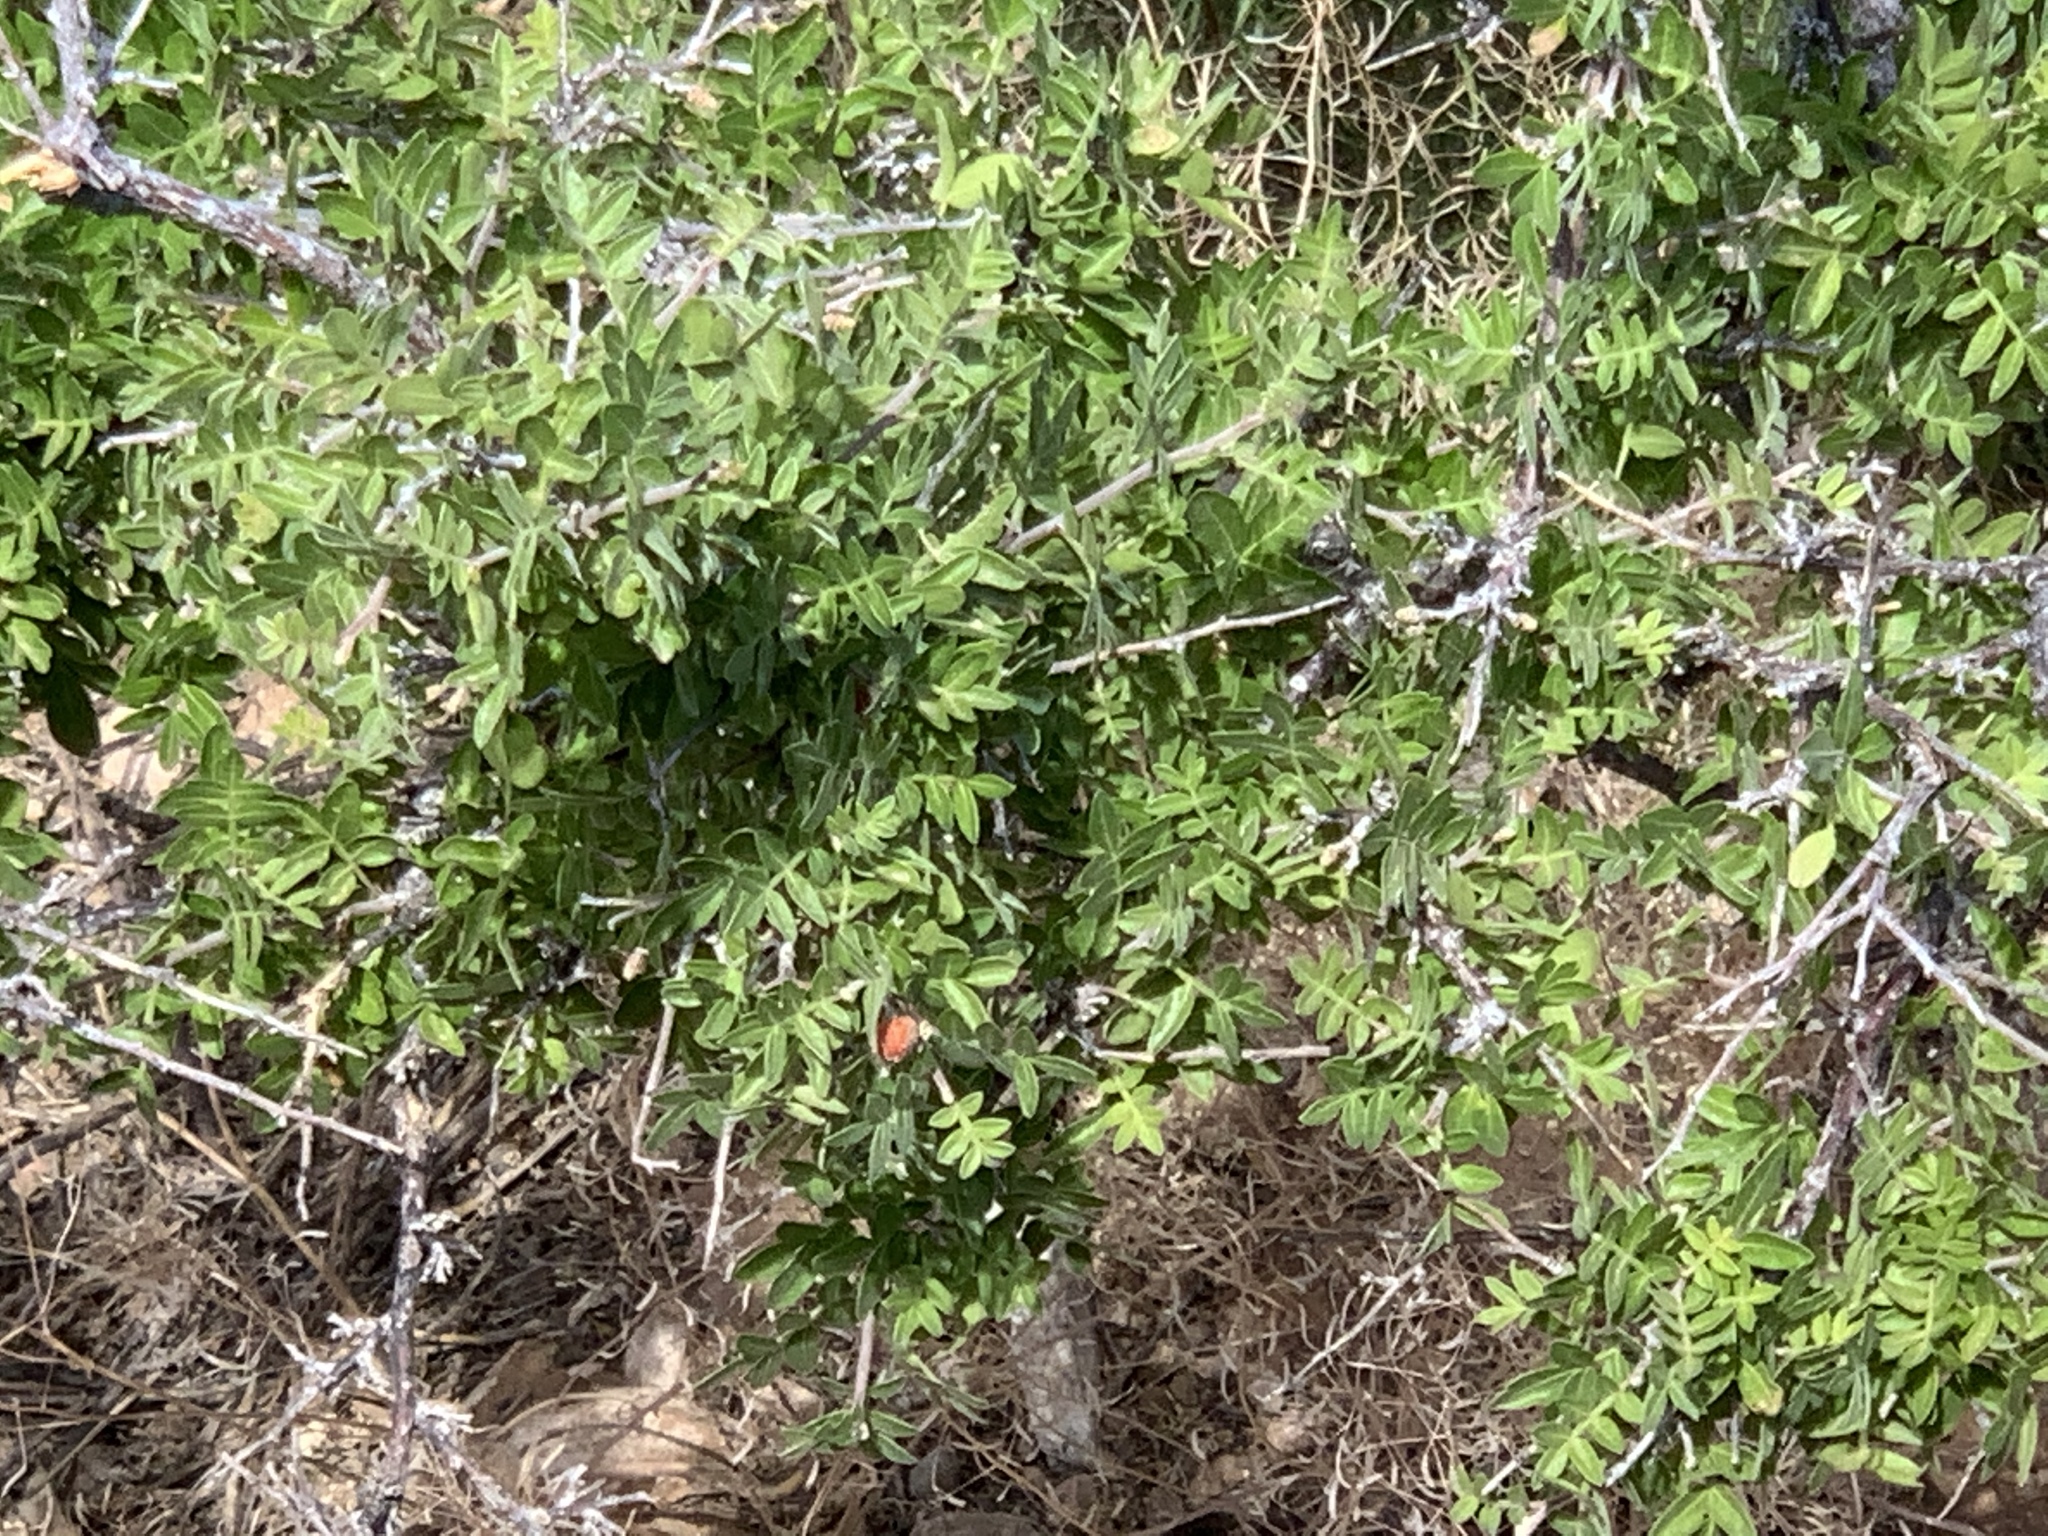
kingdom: Plantae
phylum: Tracheophyta
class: Magnoliopsida
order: Sapindales
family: Anacardiaceae
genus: Rhus
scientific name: Rhus microphylla
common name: Desert sumac
